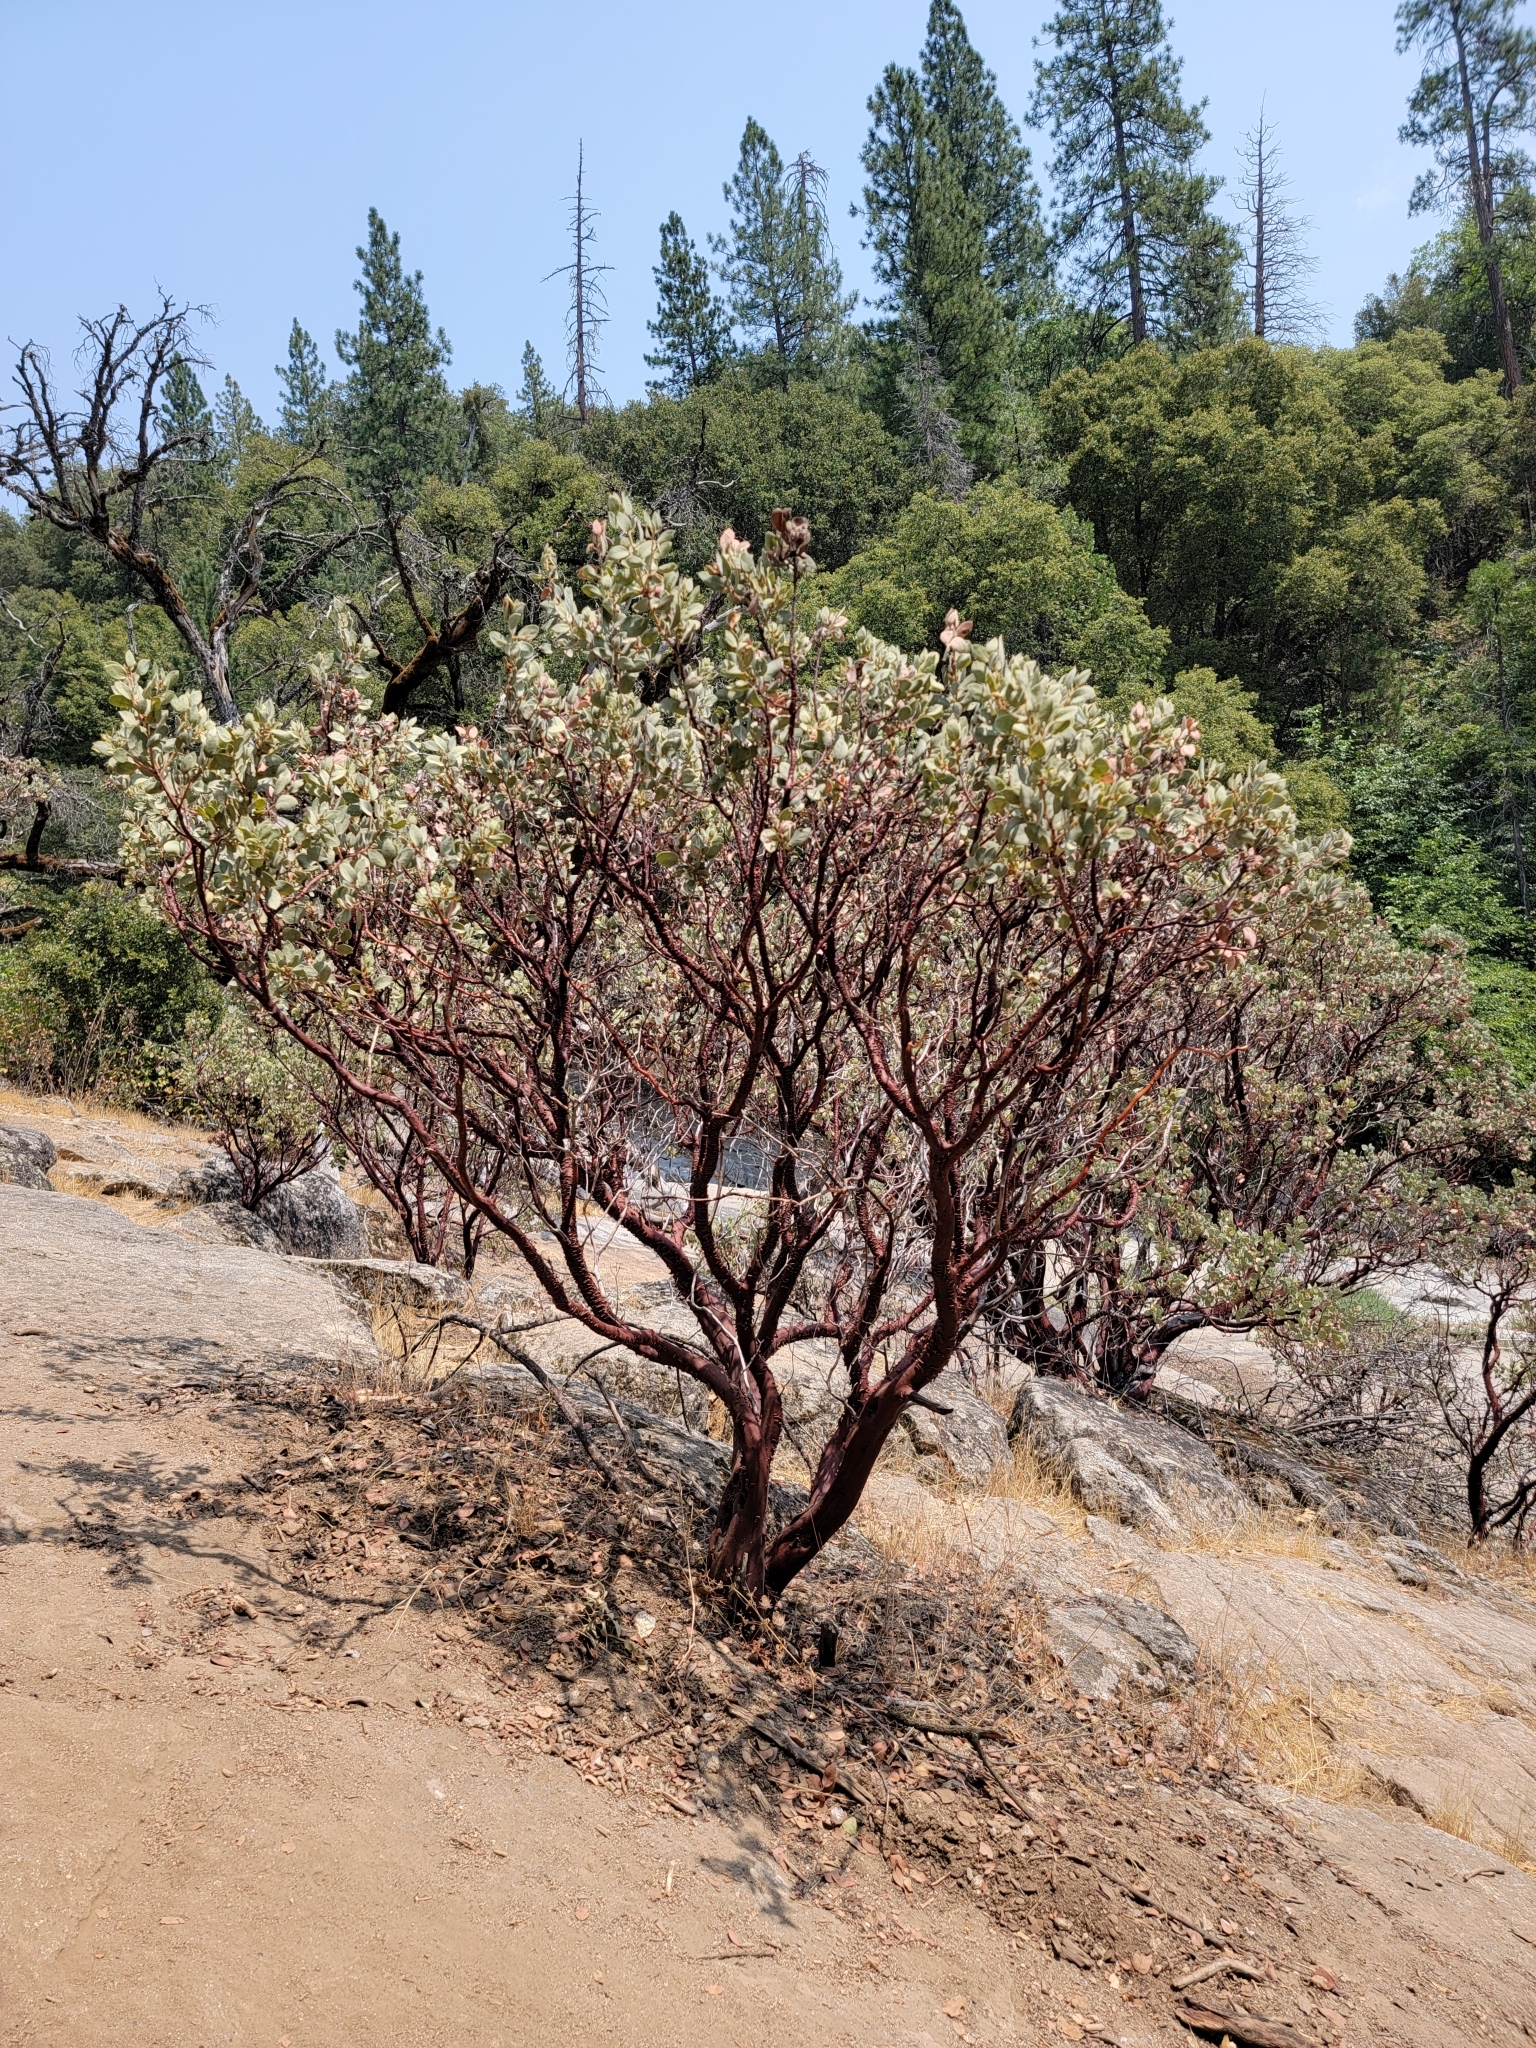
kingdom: Plantae
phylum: Tracheophyta
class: Magnoliopsida
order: Ericales
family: Ericaceae
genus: Arctostaphylos
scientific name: Arctostaphylos viscida
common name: White-leaf manzanita
